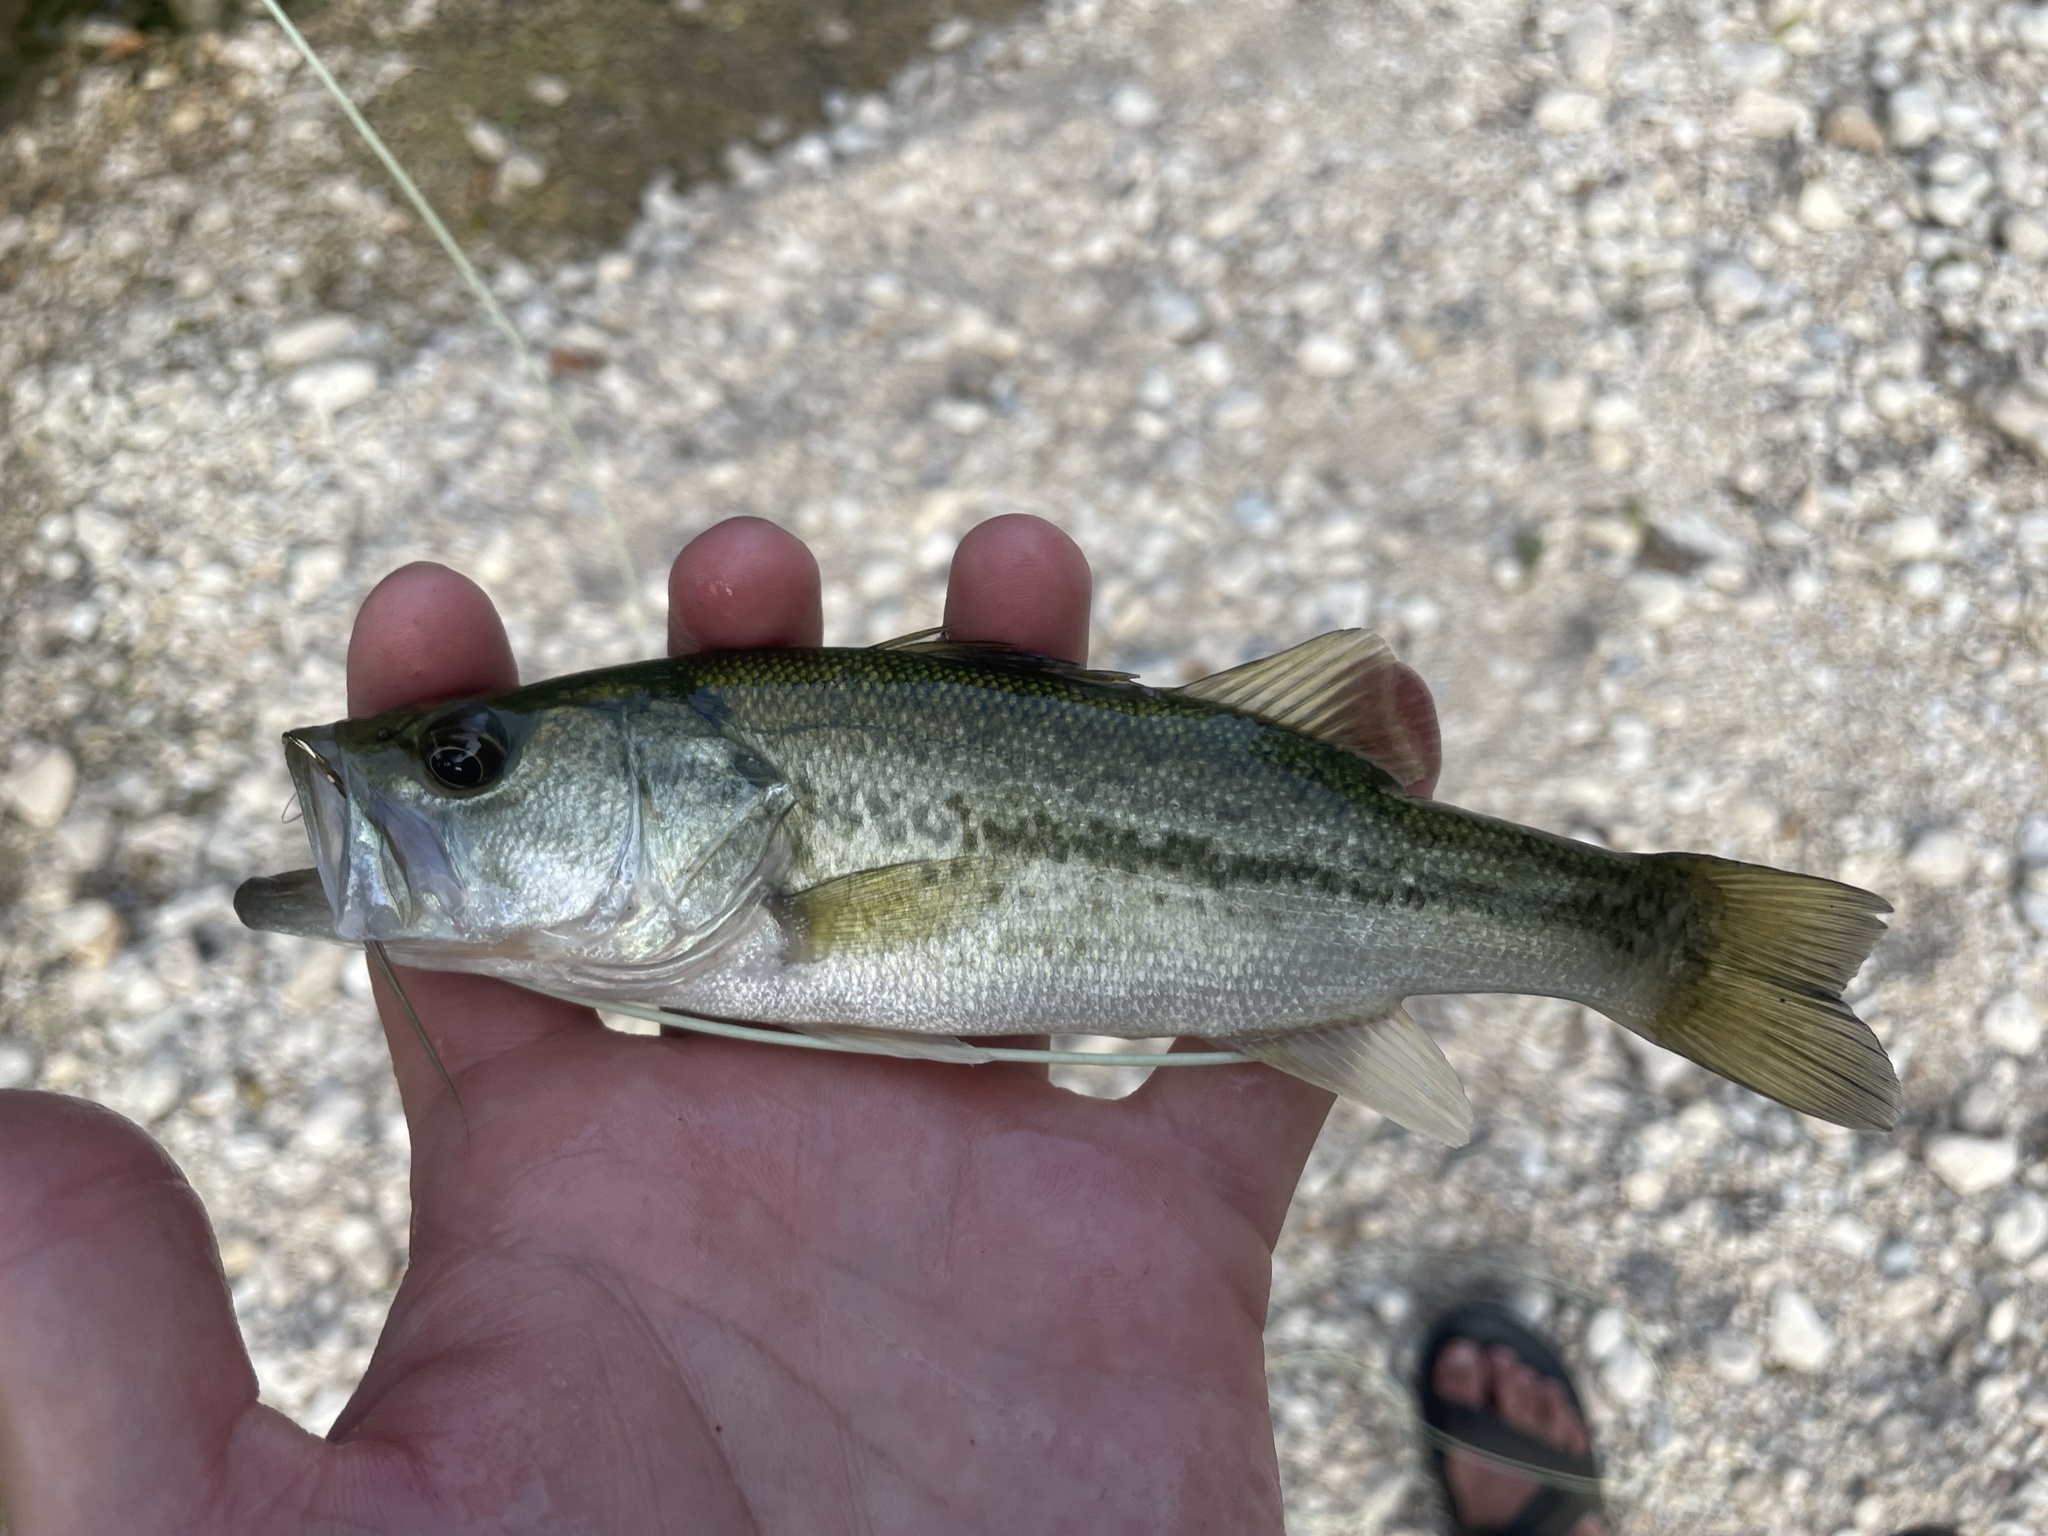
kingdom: Animalia
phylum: Chordata
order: Perciformes
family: Centrarchidae
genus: Micropterus
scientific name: Micropterus
